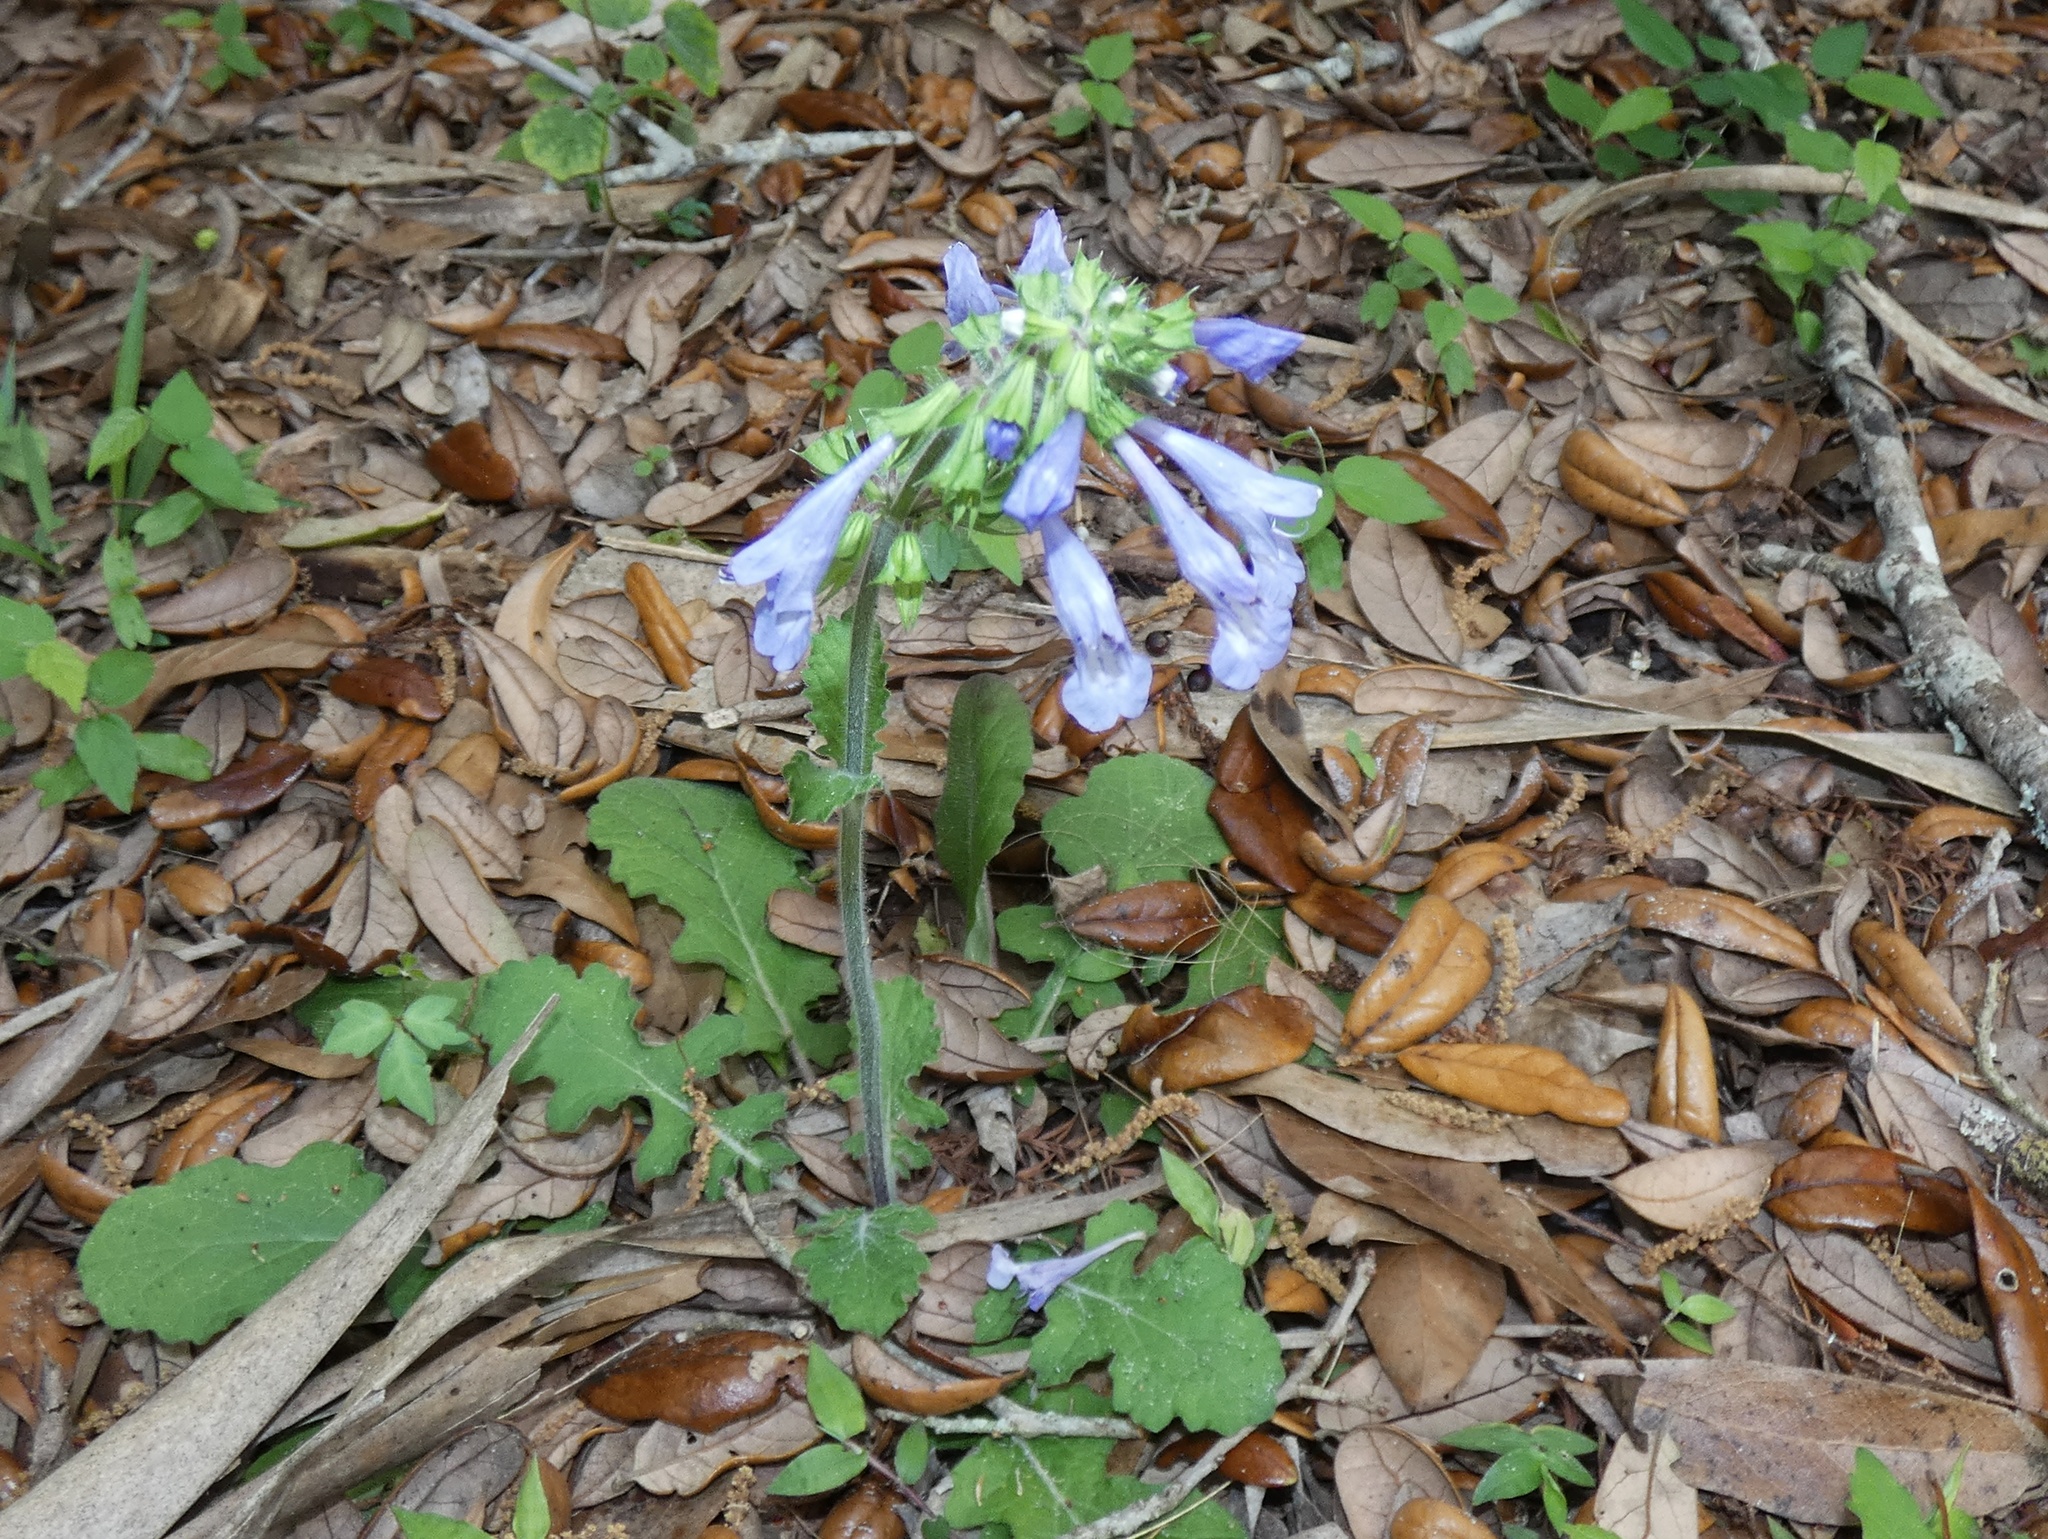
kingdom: Plantae
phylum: Tracheophyta
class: Magnoliopsida
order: Lamiales
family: Lamiaceae
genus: Salvia
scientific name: Salvia lyrata
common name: Cancerweed
